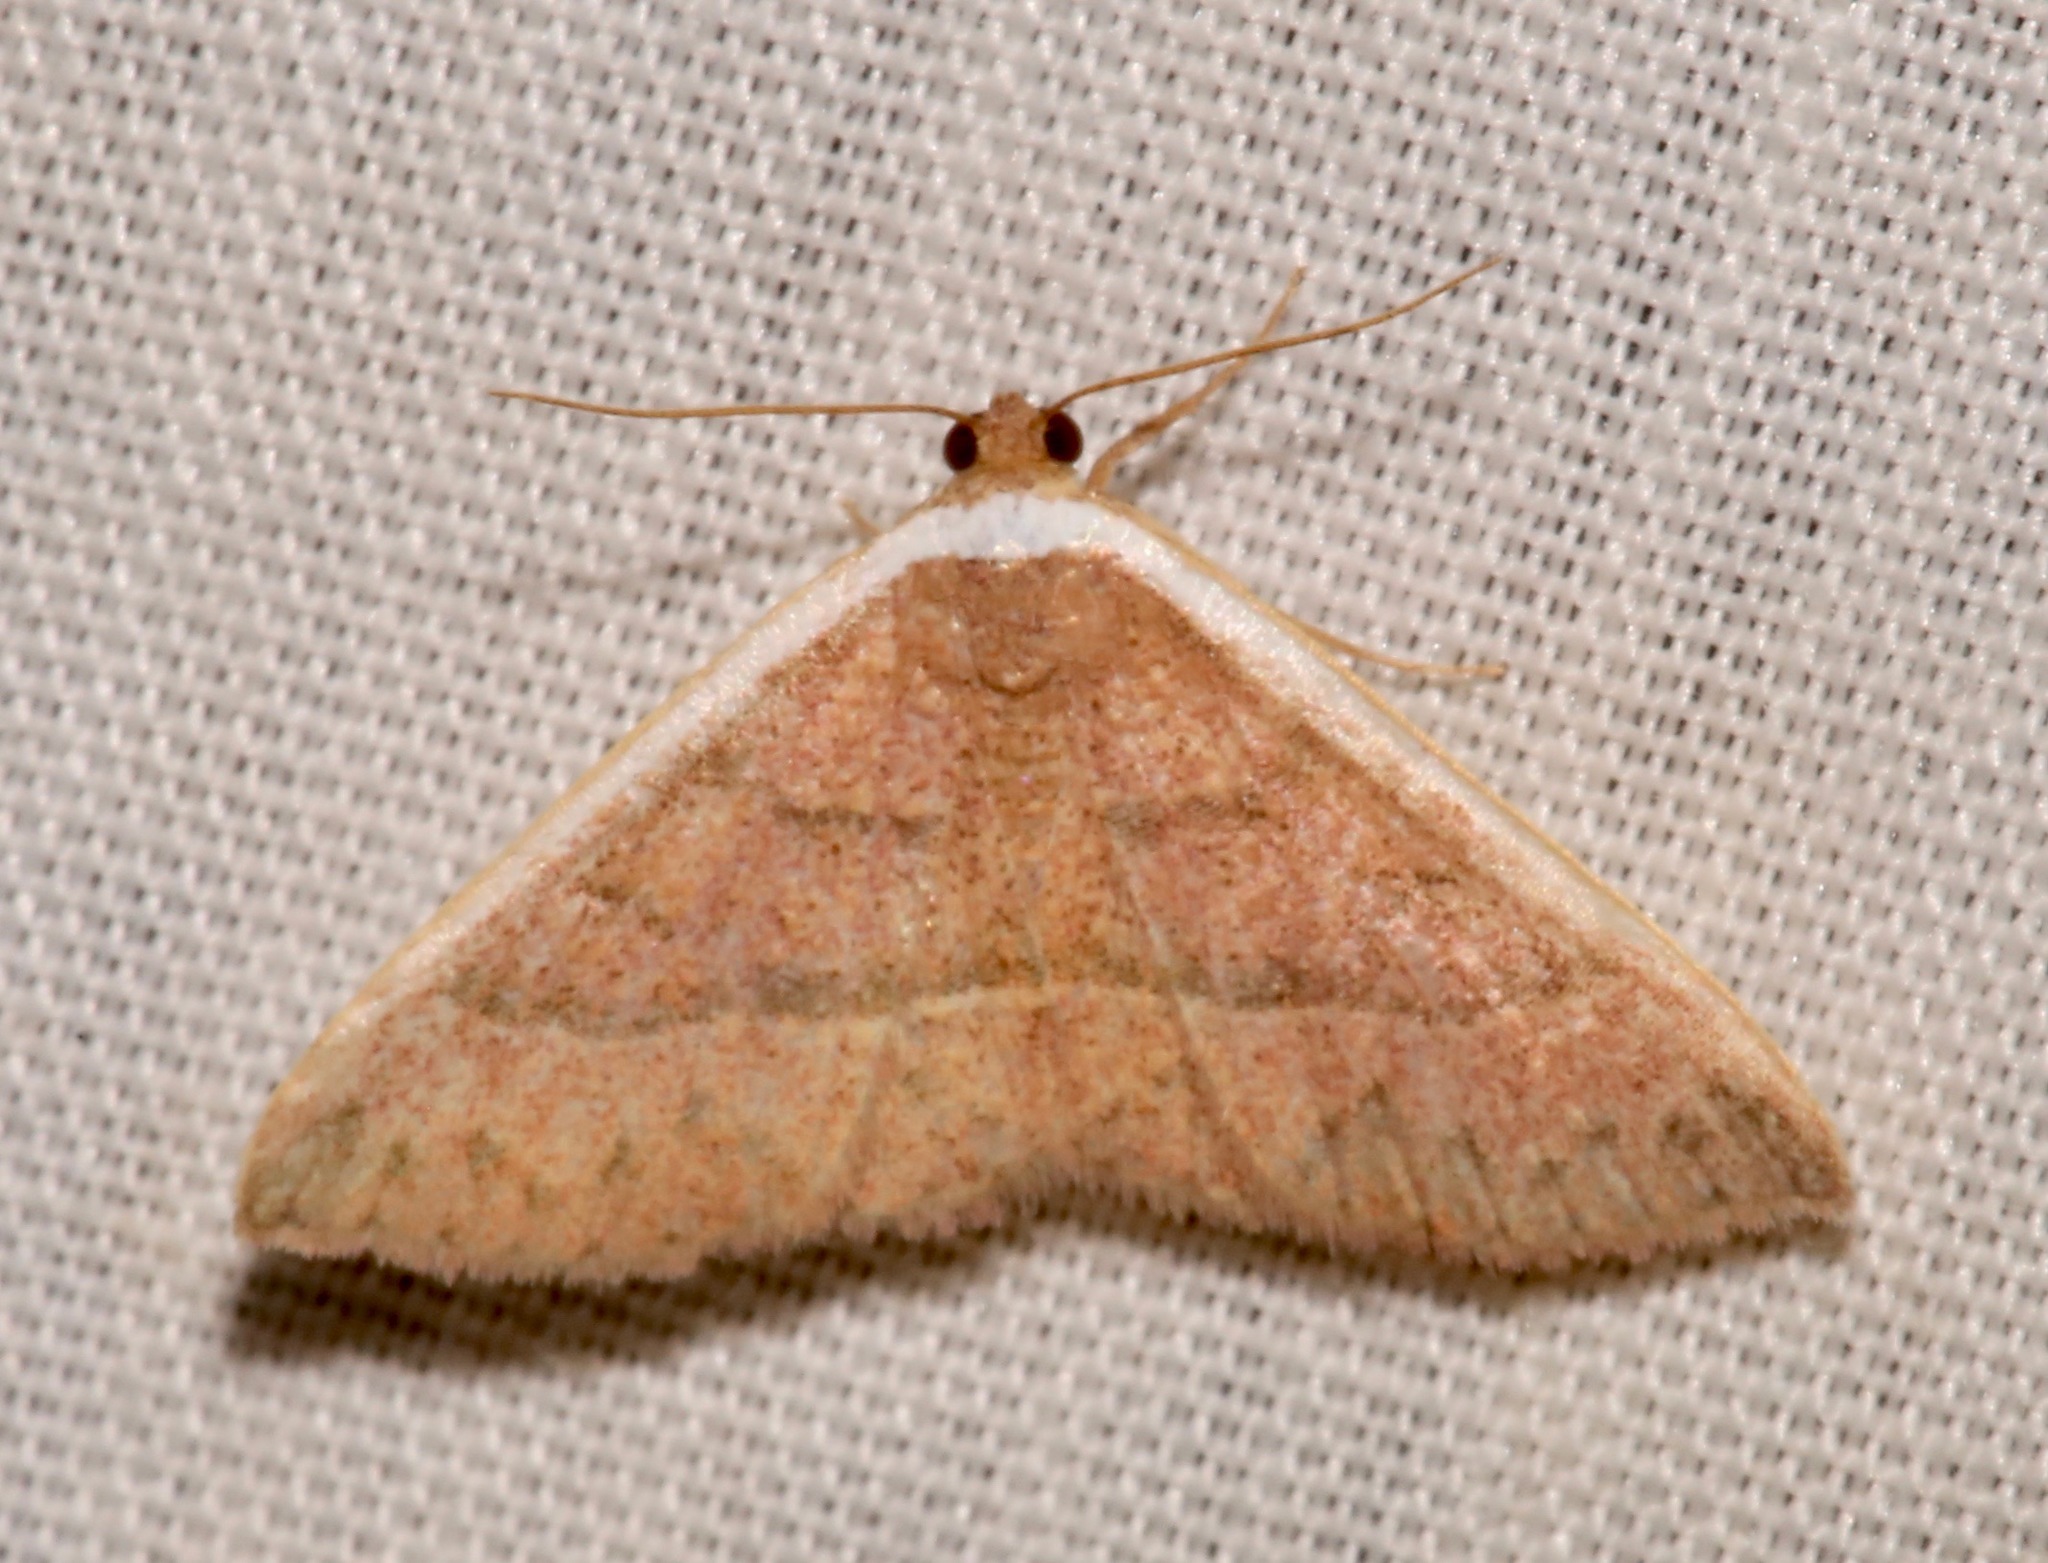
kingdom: Animalia
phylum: Arthropoda
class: Insecta
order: Lepidoptera
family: Noctuidae
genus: Oruza
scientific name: Oruza albocostata
